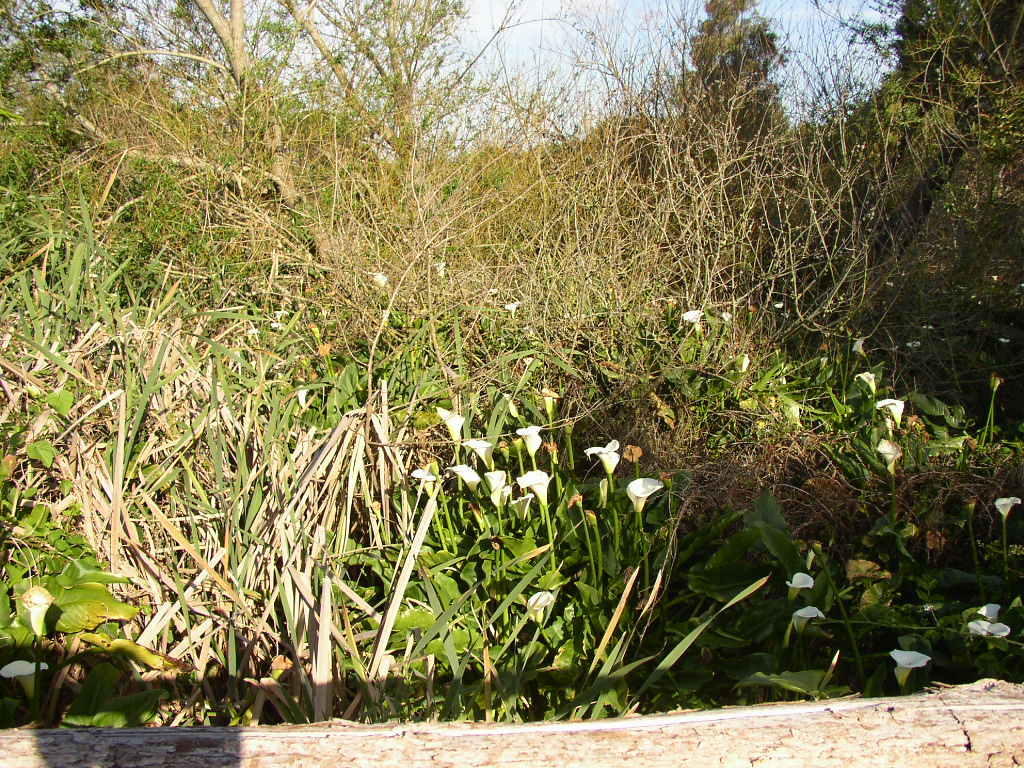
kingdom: Plantae
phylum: Tracheophyta
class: Liliopsida
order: Alismatales
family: Araceae
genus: Zantedeschia
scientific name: Zantedeschia aethiopica
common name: Altar-lily
